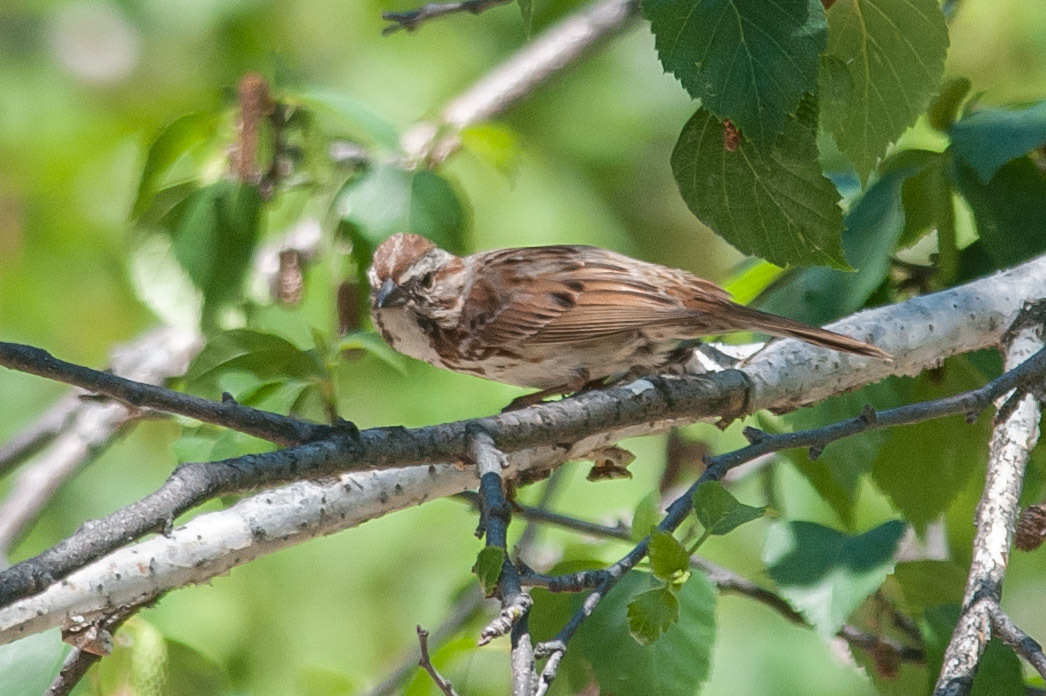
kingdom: Animalia
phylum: Chordata
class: Aves
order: Passeriformes
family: Passerellidae
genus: Melospiza
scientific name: Melospiza melodia
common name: Song sparrow
